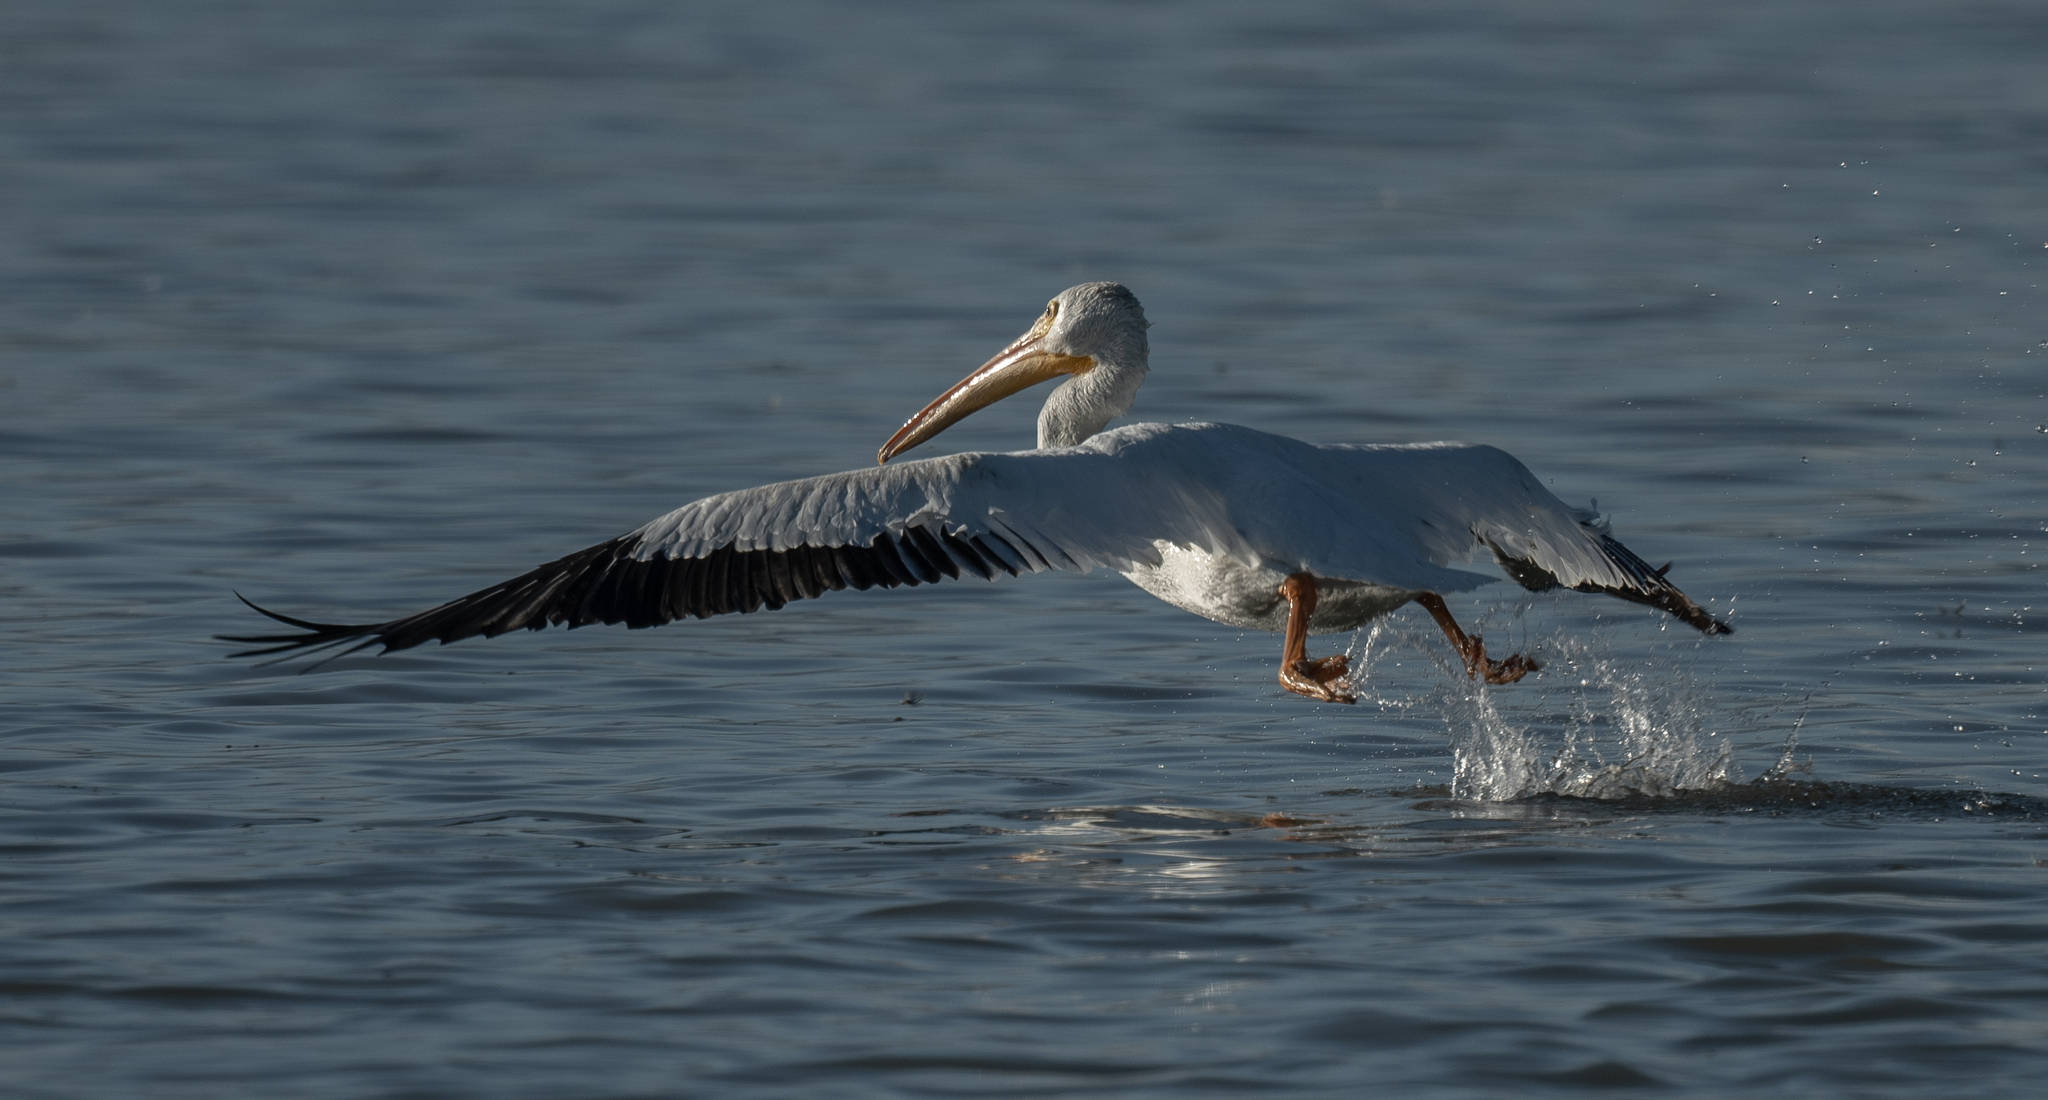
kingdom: Animalia
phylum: Chordata
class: Aves
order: Pelecaniformes
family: Pelecanidae
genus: Pelecanus
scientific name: Pelecanus erythrorhynchos
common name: American white pelican
